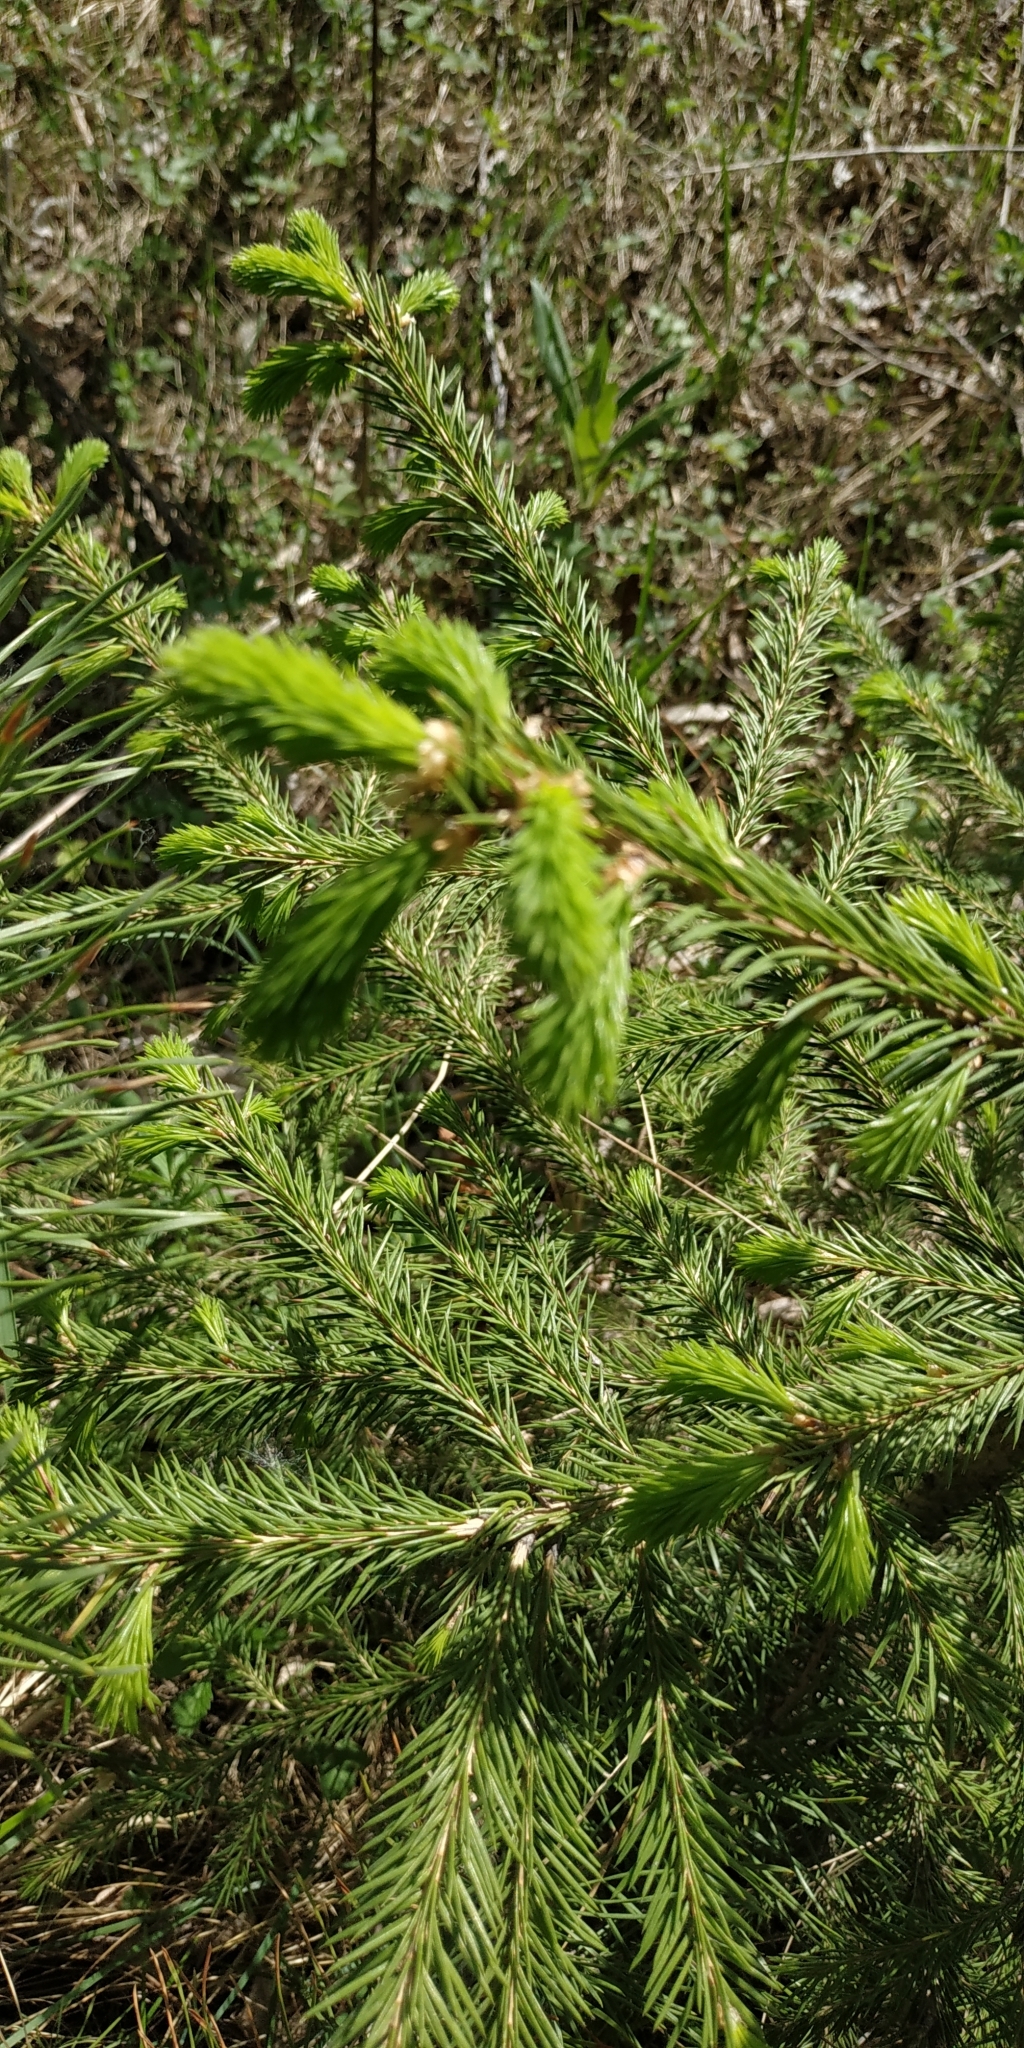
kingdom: Plantae
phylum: Tracheophyta
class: Pinopsida
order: Pinales
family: Pinaceae
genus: Picea
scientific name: Picea obovata
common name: Siberian spruce
